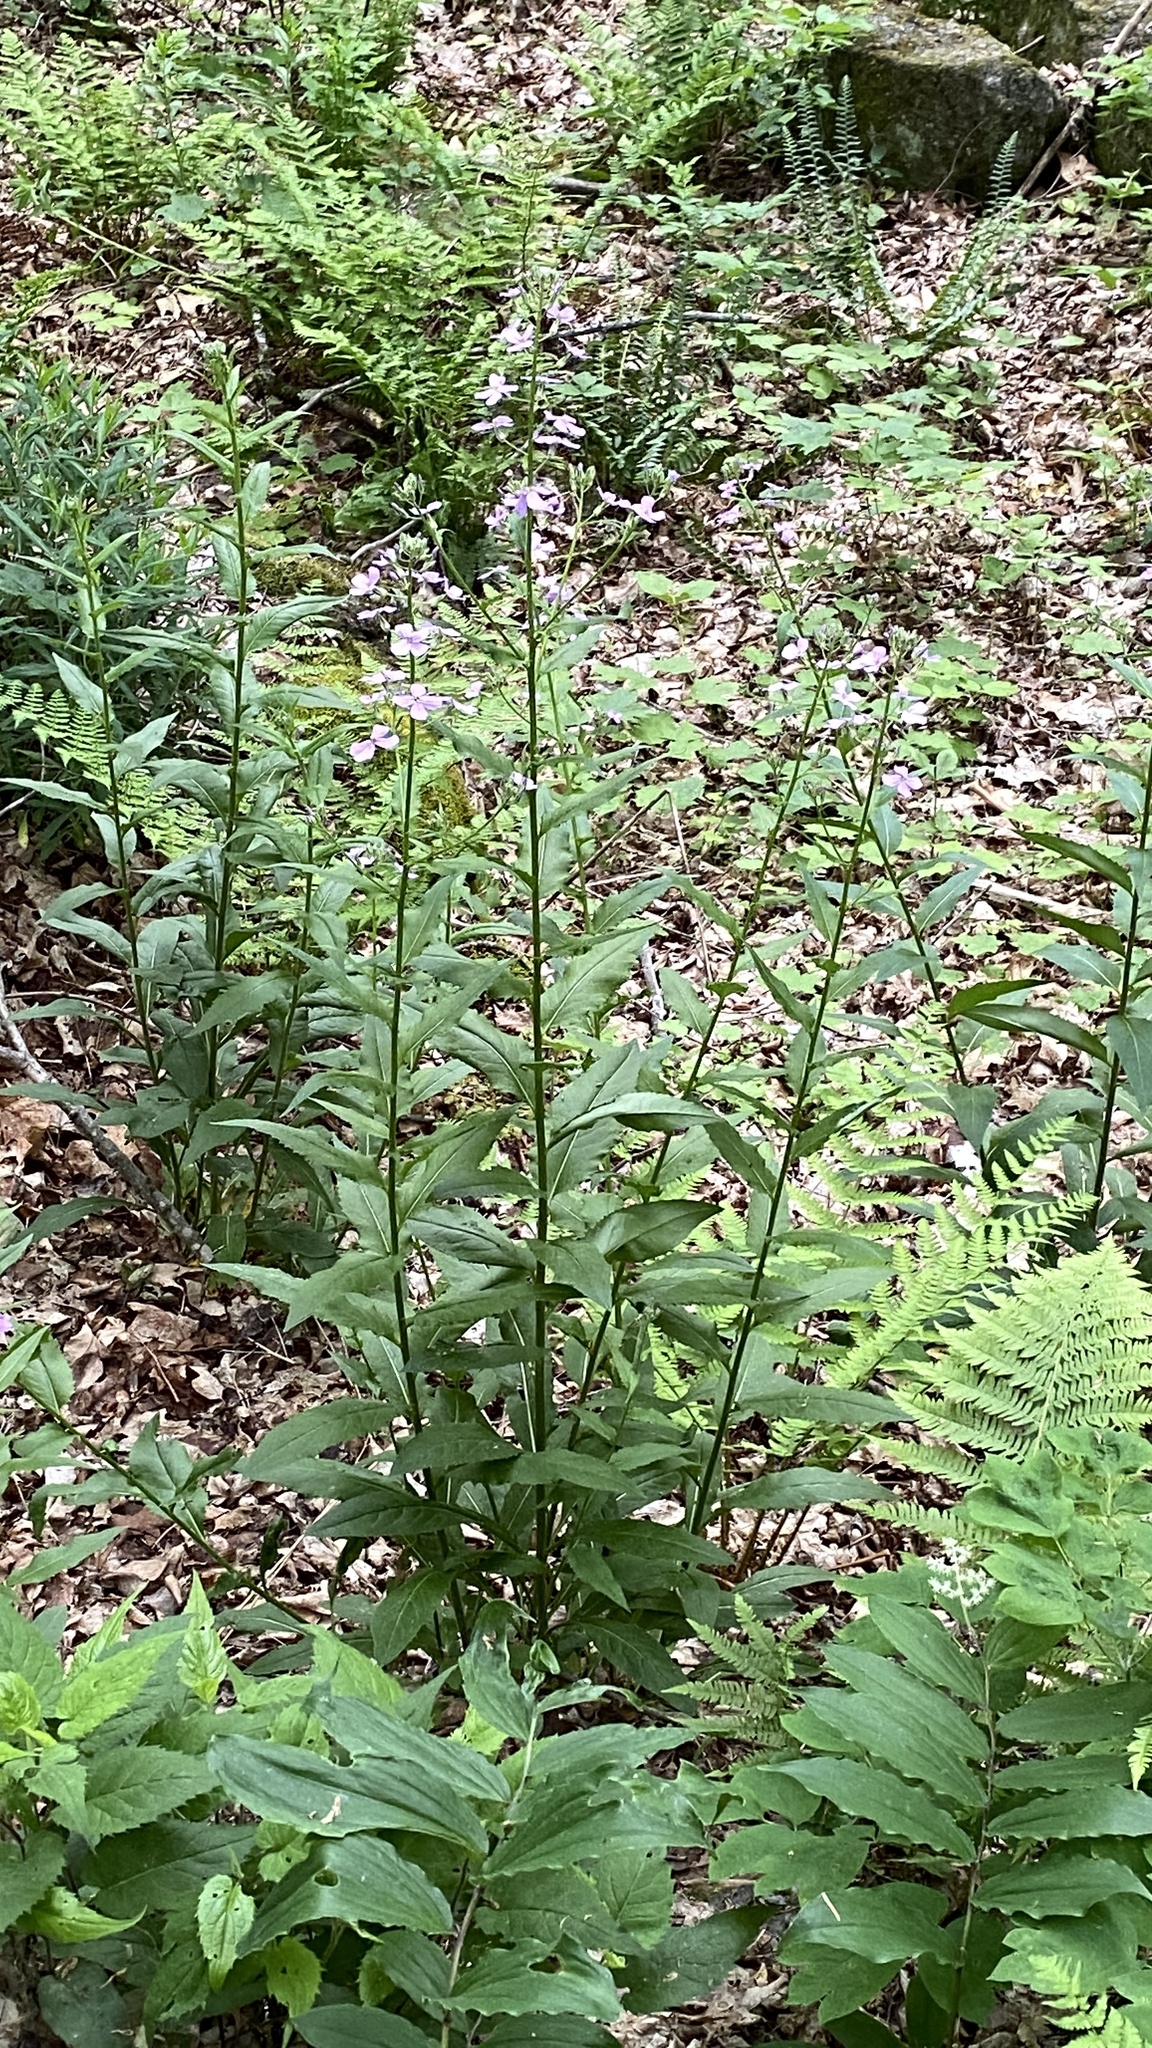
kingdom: Plantae
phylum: Tracheophyta
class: Magnoliopsida
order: Brassicales
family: Brassicaceae
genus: Hesperis
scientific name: Hesperis matronalis
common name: Dame's-violet
